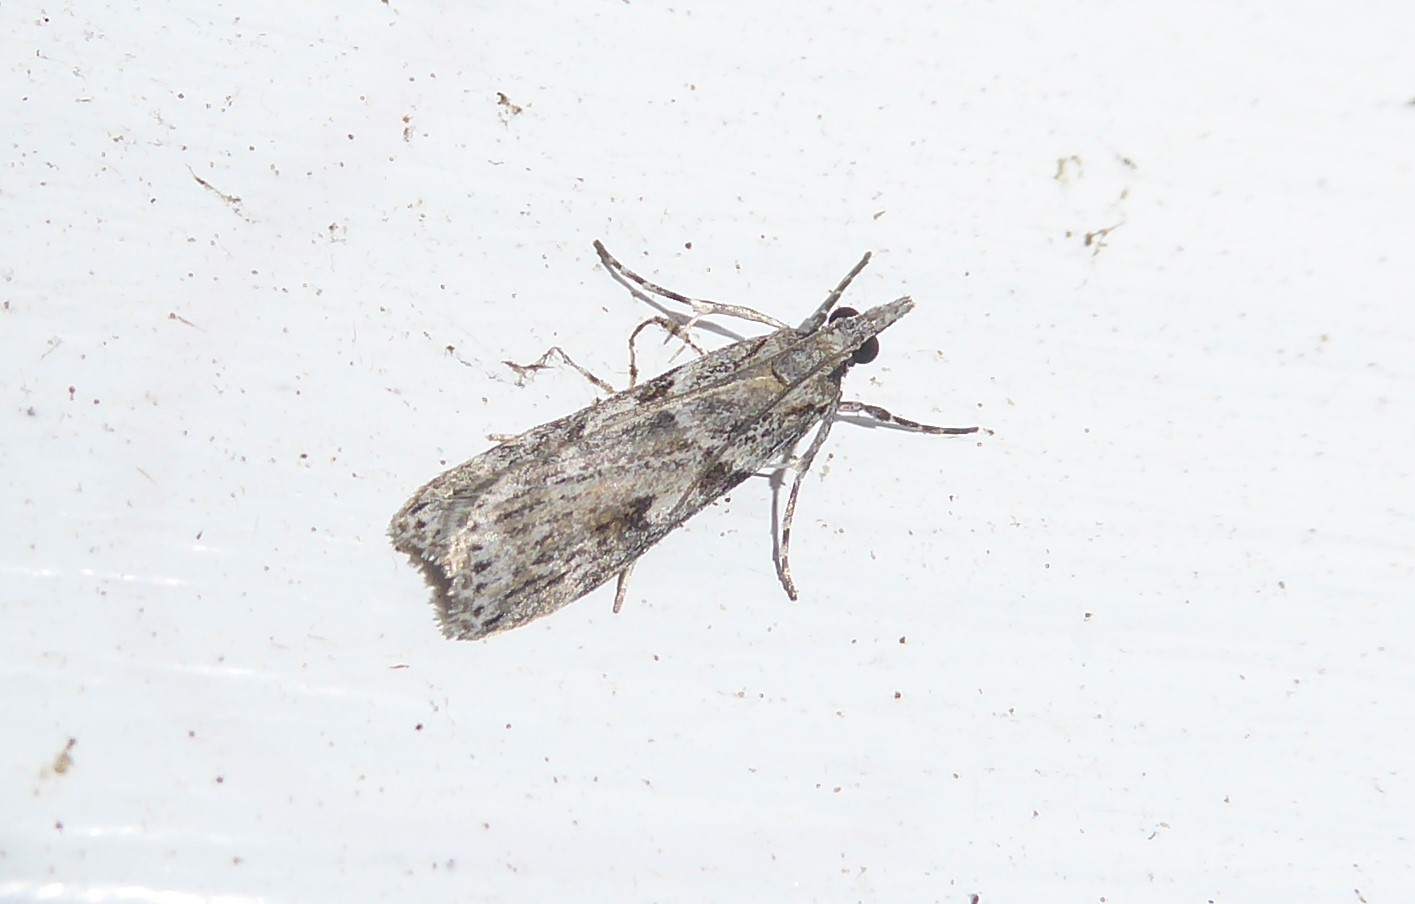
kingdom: Animalia
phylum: Arthropoda
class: Insecta
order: Lepidoptera
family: Crambidae
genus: Scoparia
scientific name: Scoparia halopis
